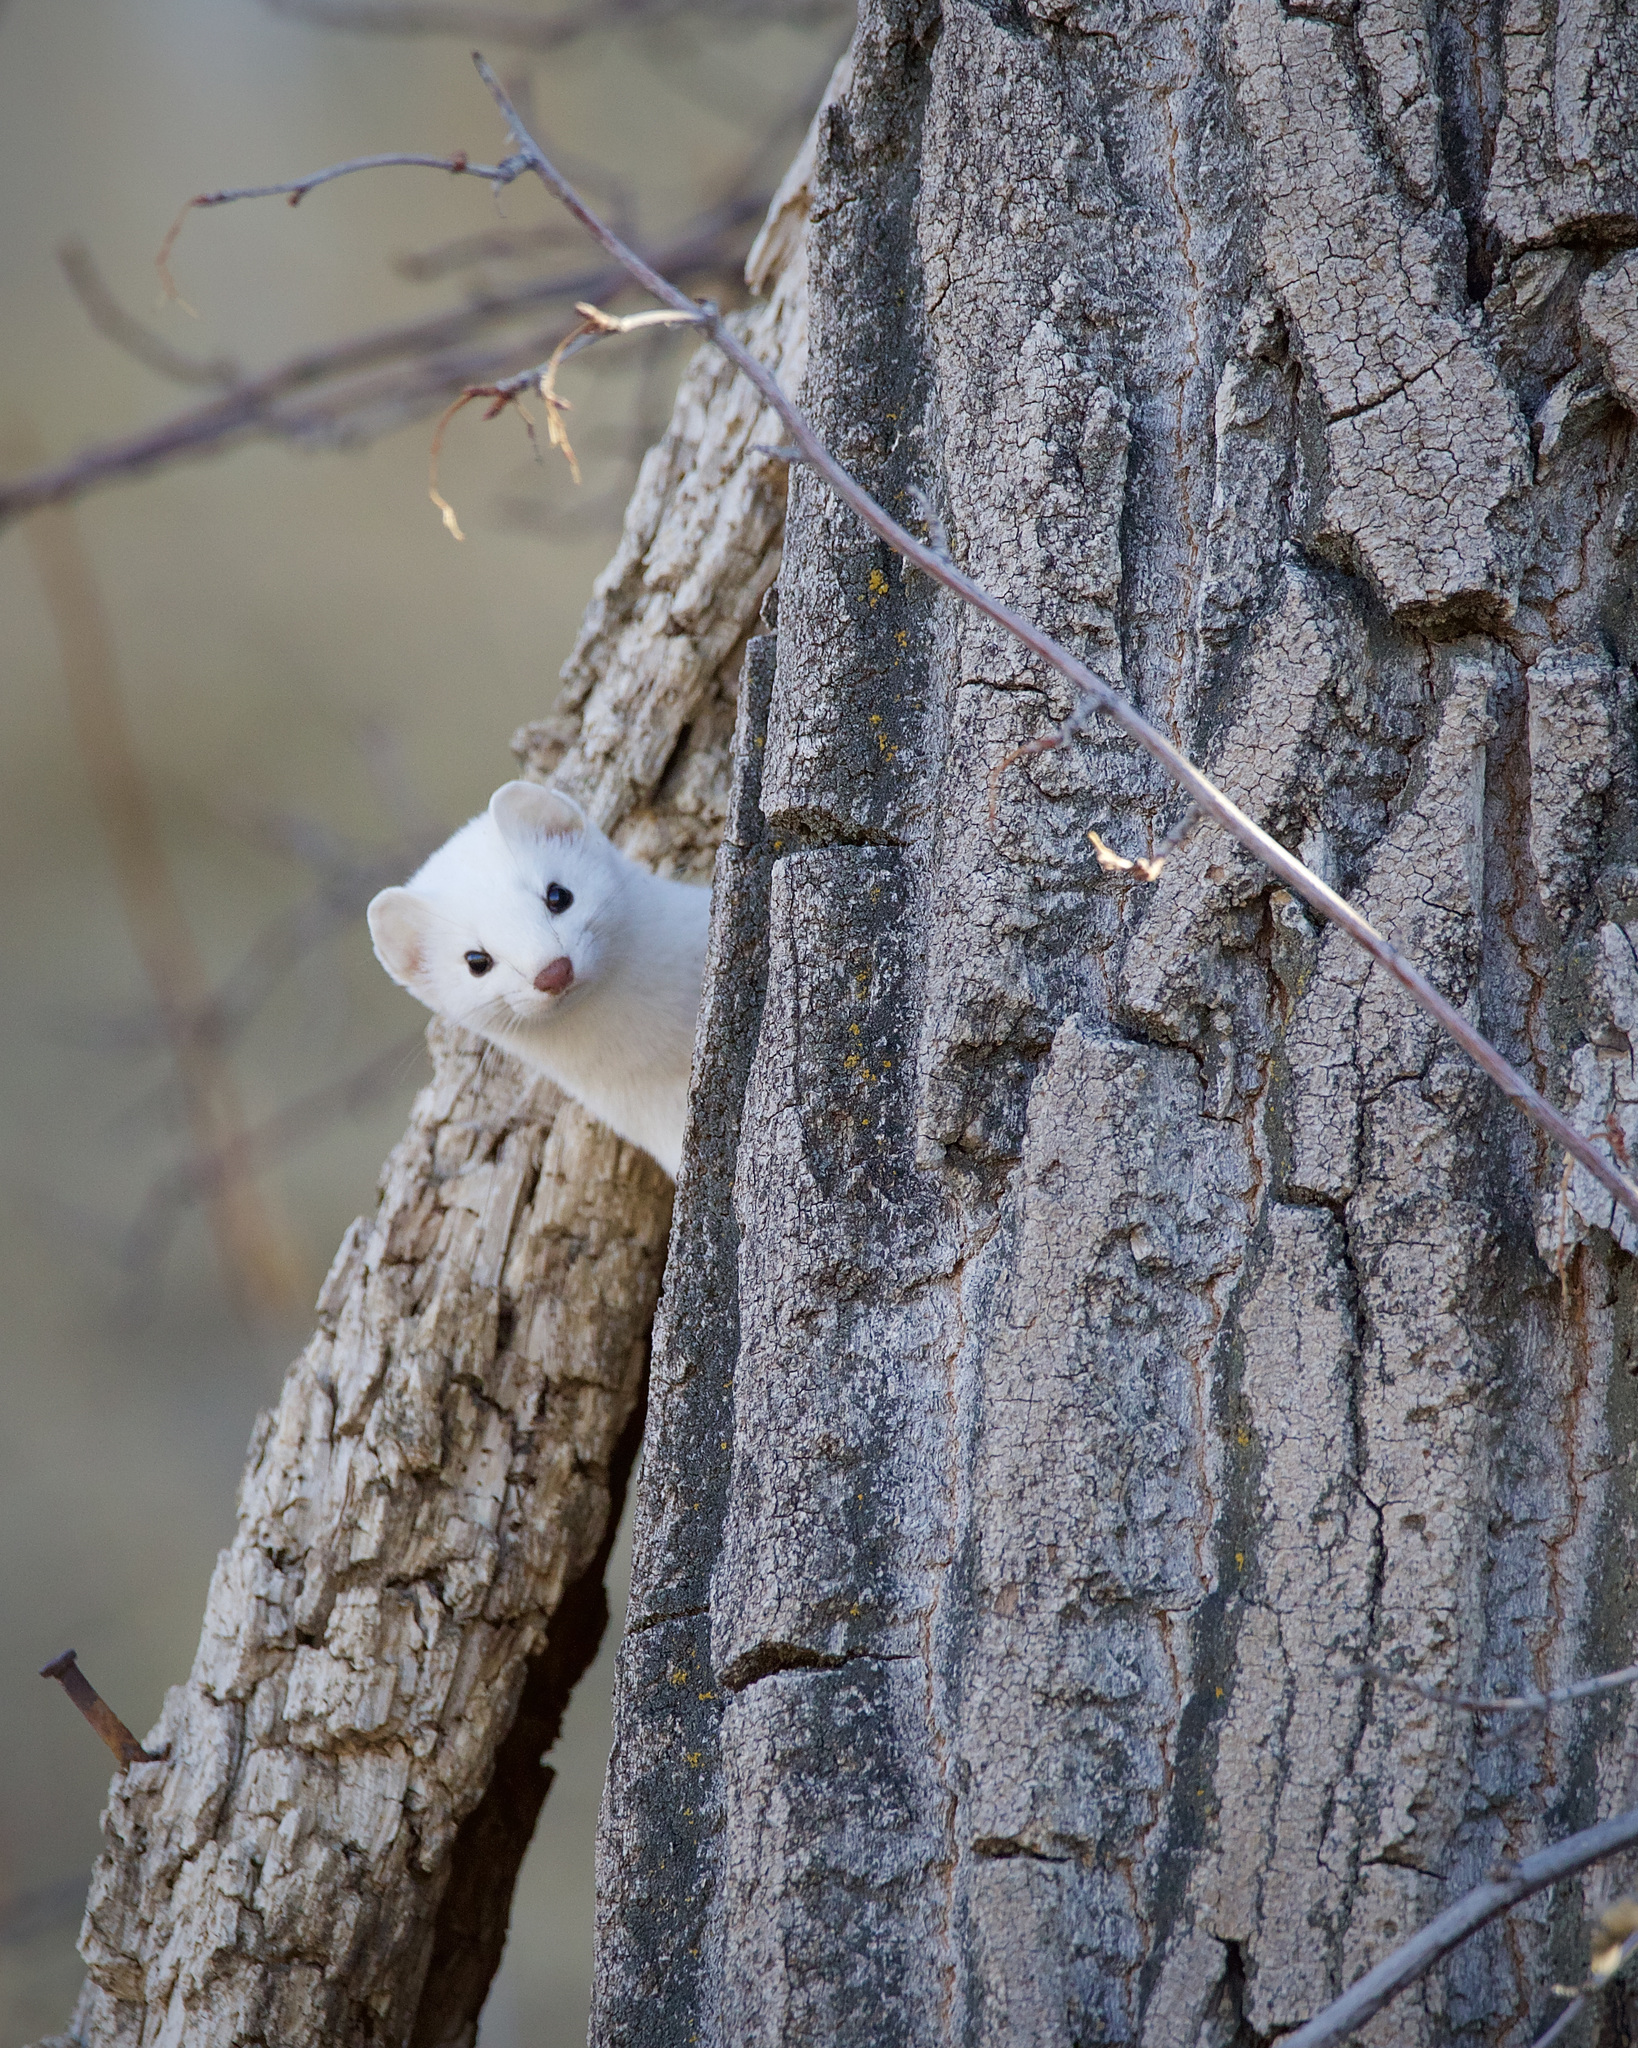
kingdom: Animalia
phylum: Chordata
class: Mammalia
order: Carnivora
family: Mustelidae
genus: Mustela
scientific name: Mustela
